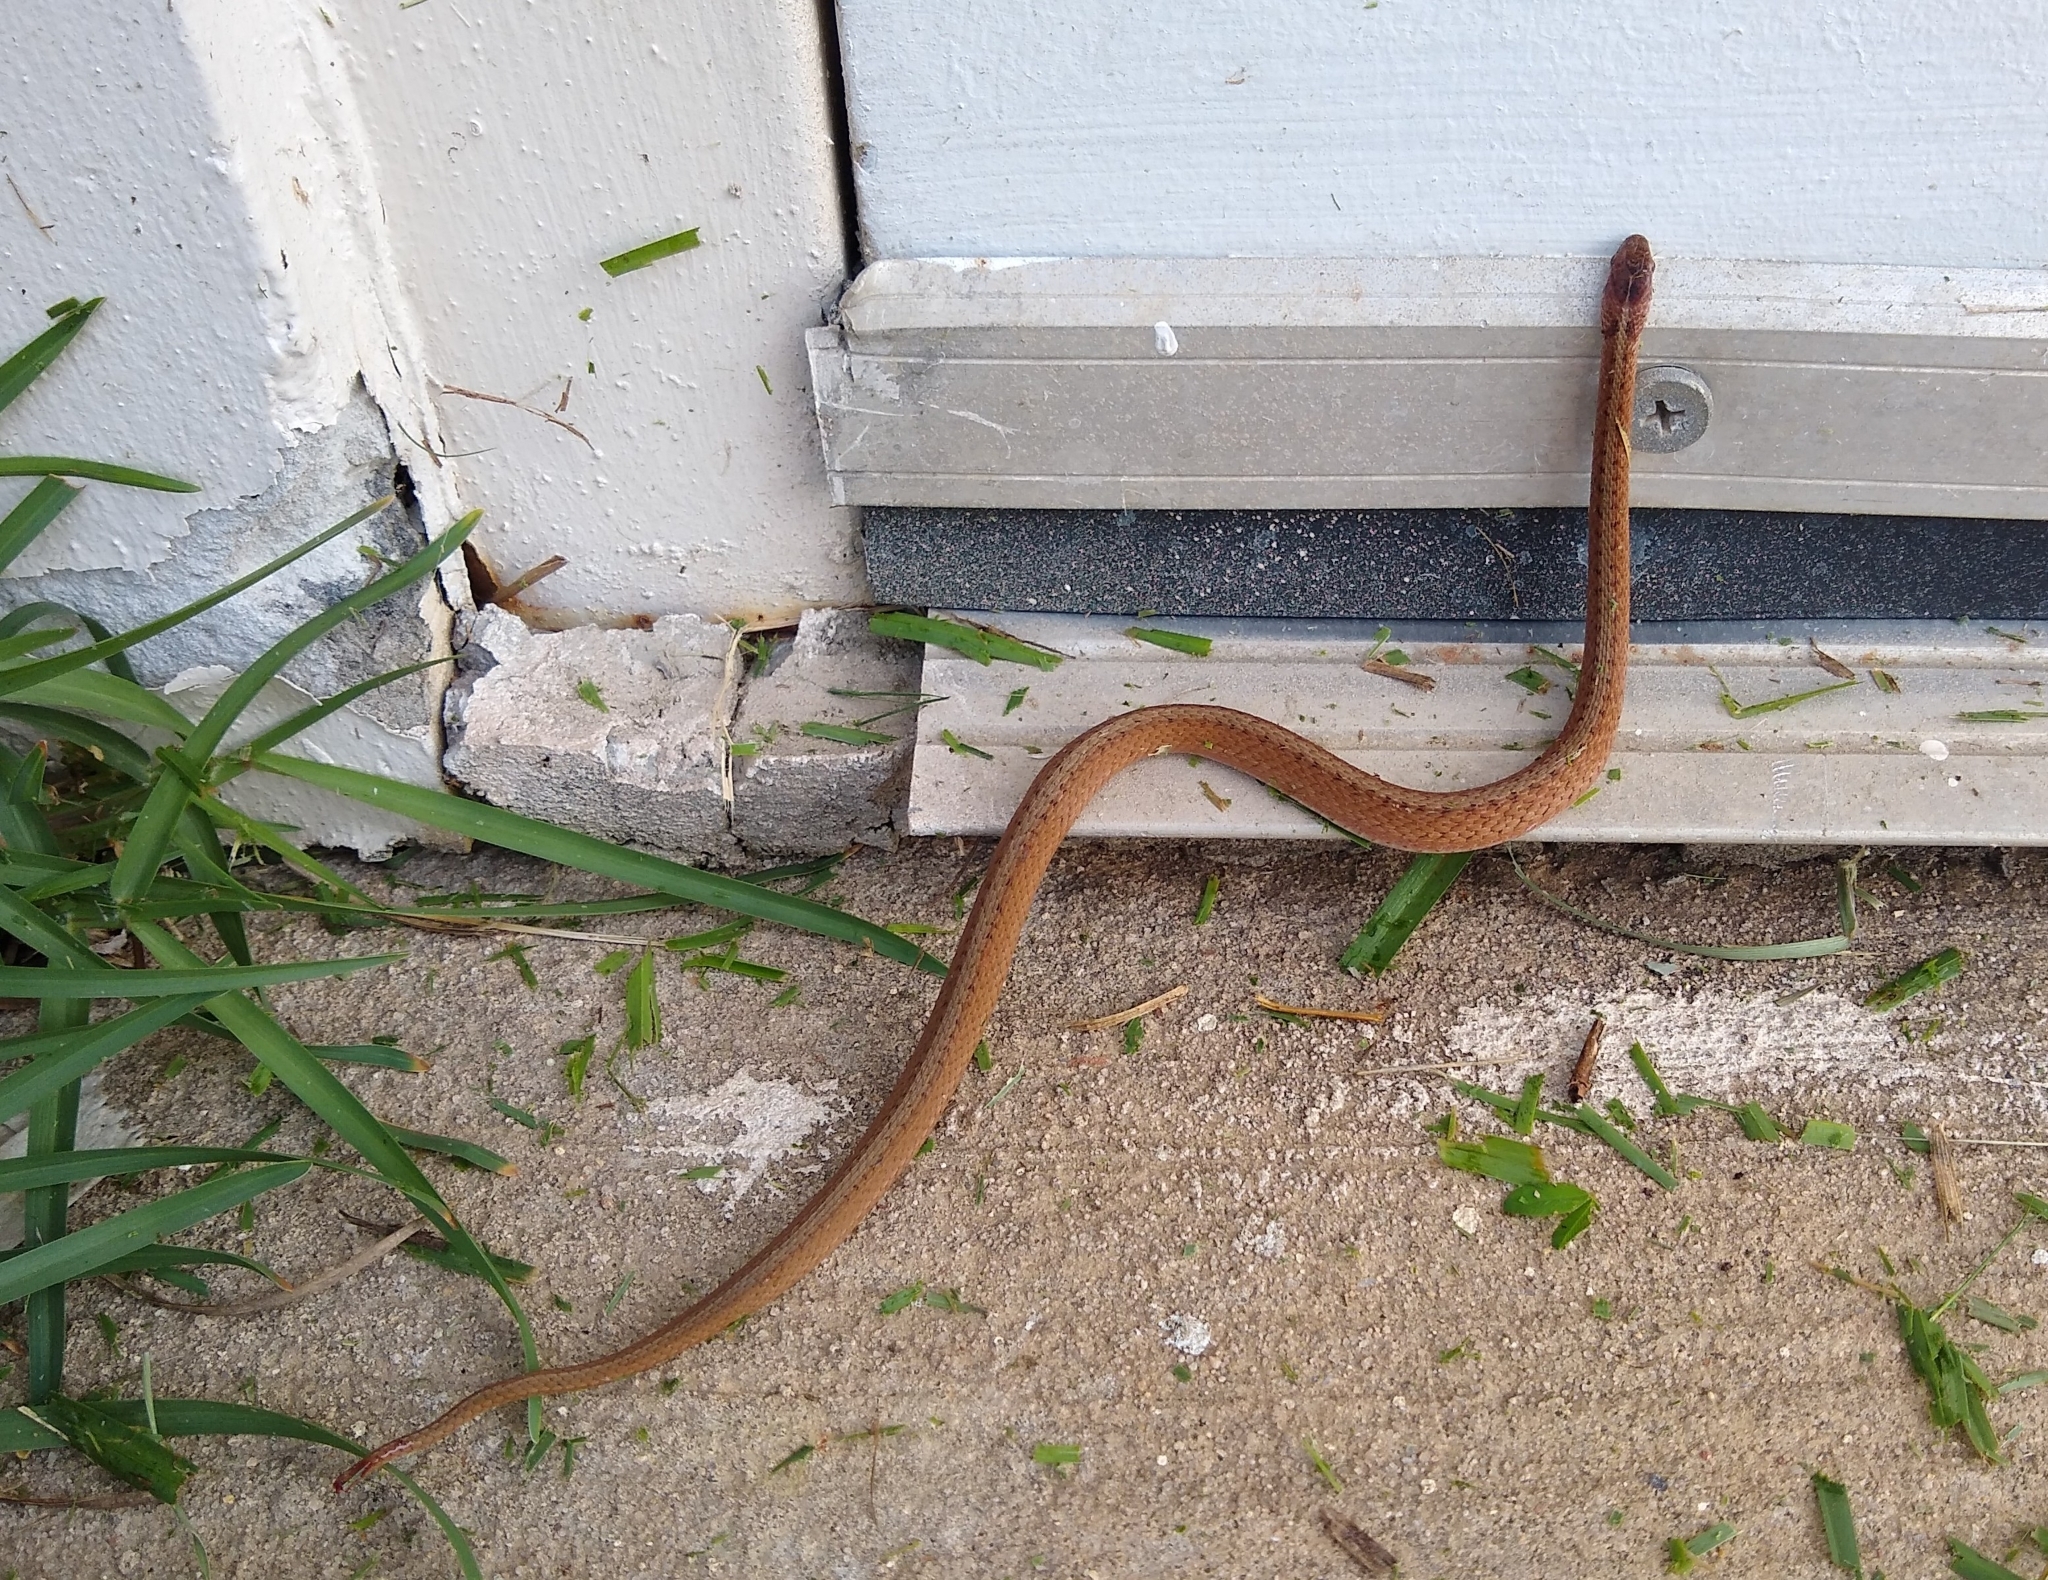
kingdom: Animalia
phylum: Chordata
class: Squamata
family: Colubridae
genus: Storeria
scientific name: Storeria dekayi
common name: (dekay’s) brown snake
